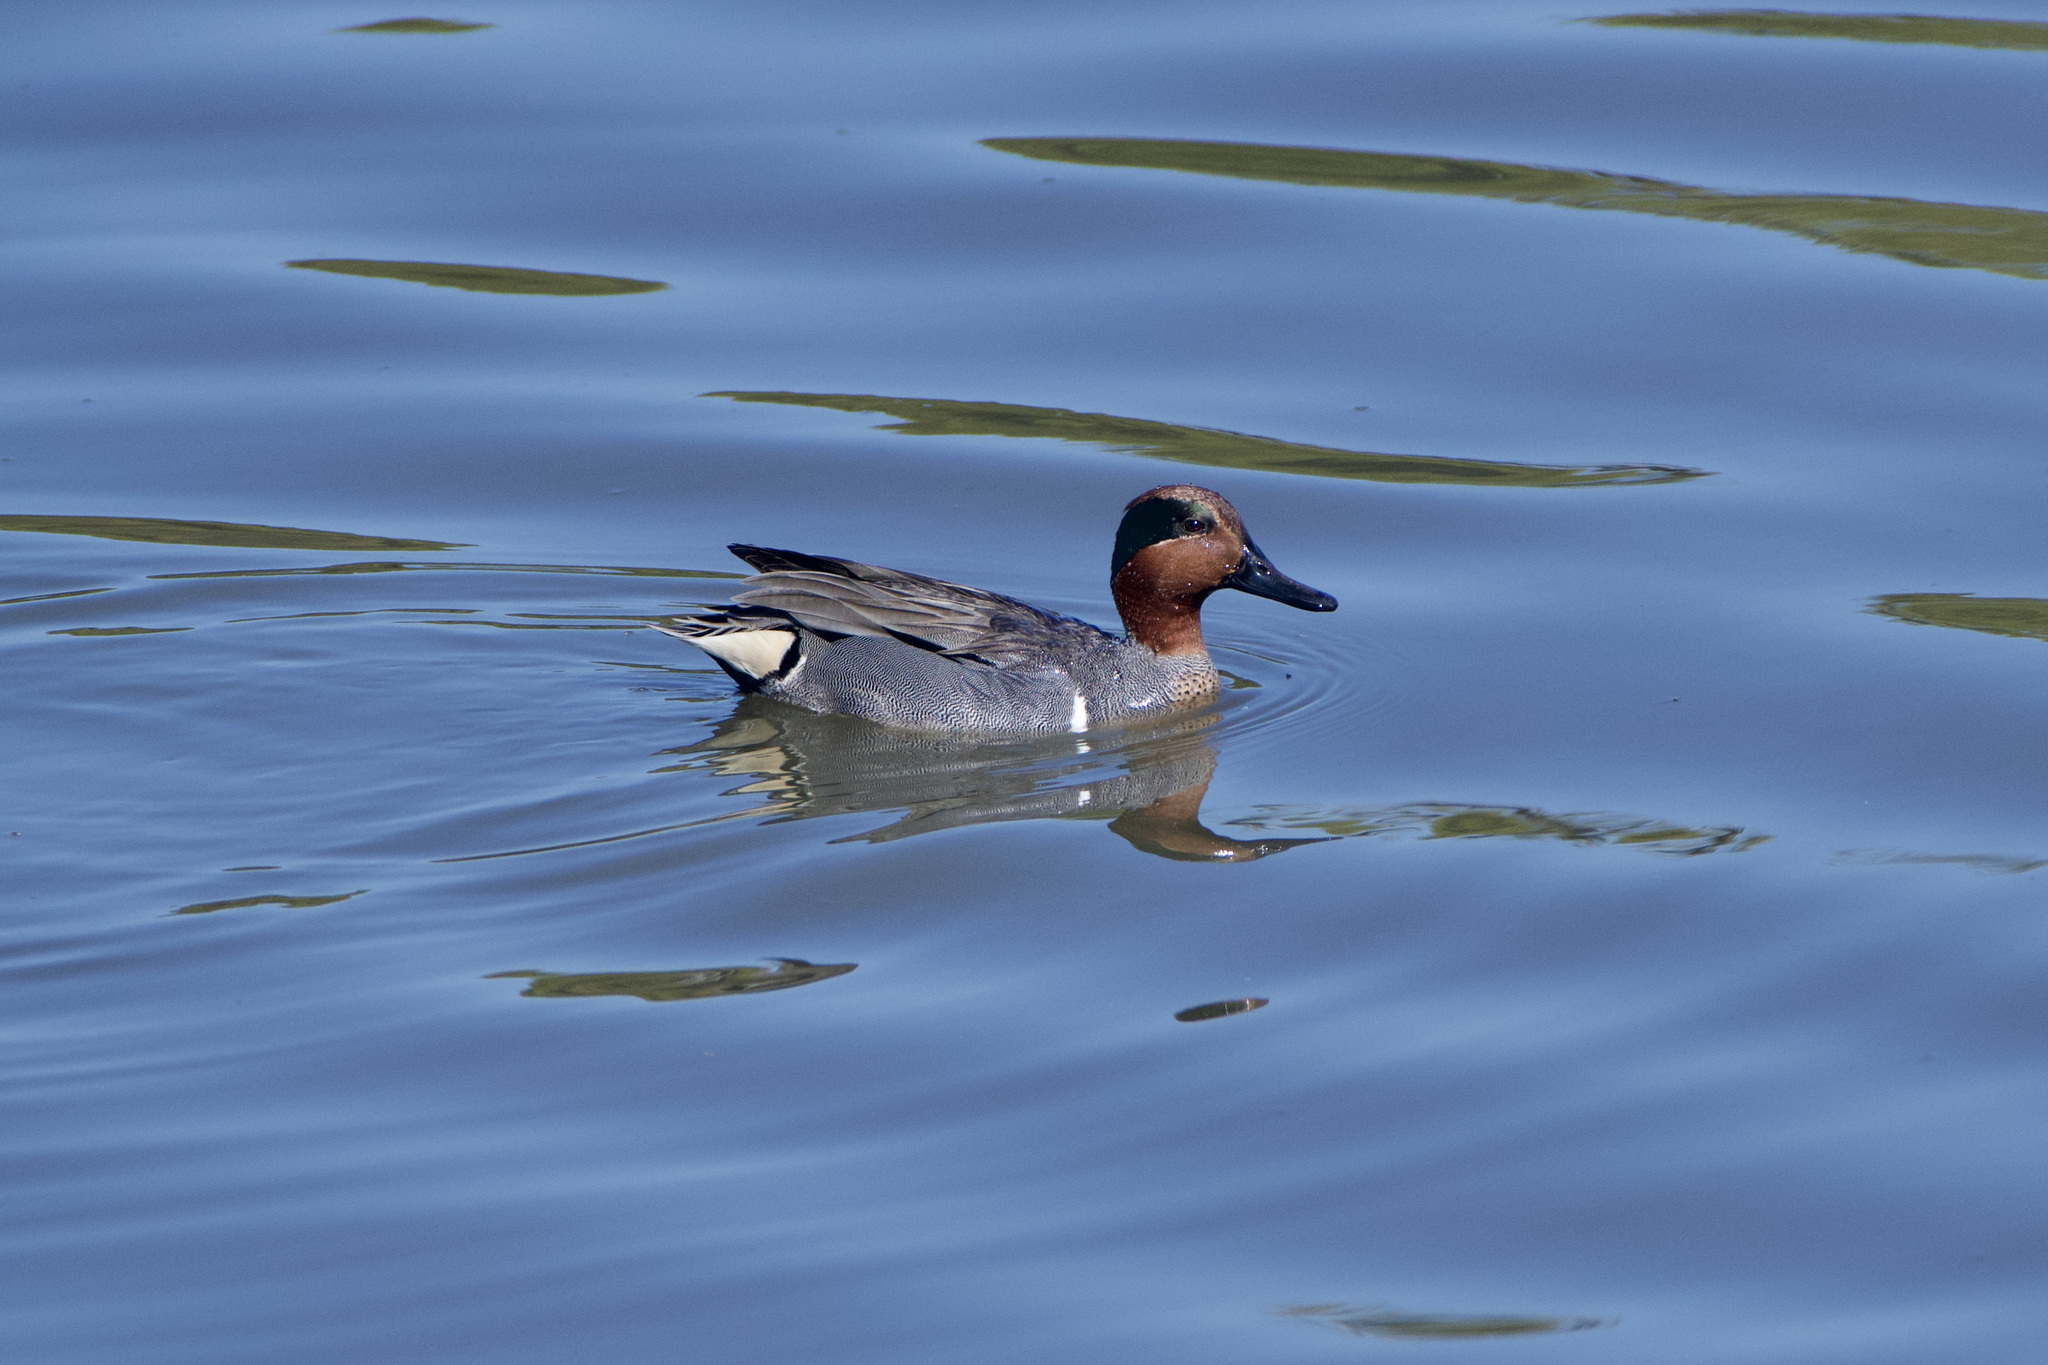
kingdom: Animalia
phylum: Chordata
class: Aves
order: Anseriformes
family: Anatidae
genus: Anas
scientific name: Anas crecca
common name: Eurasian teal
